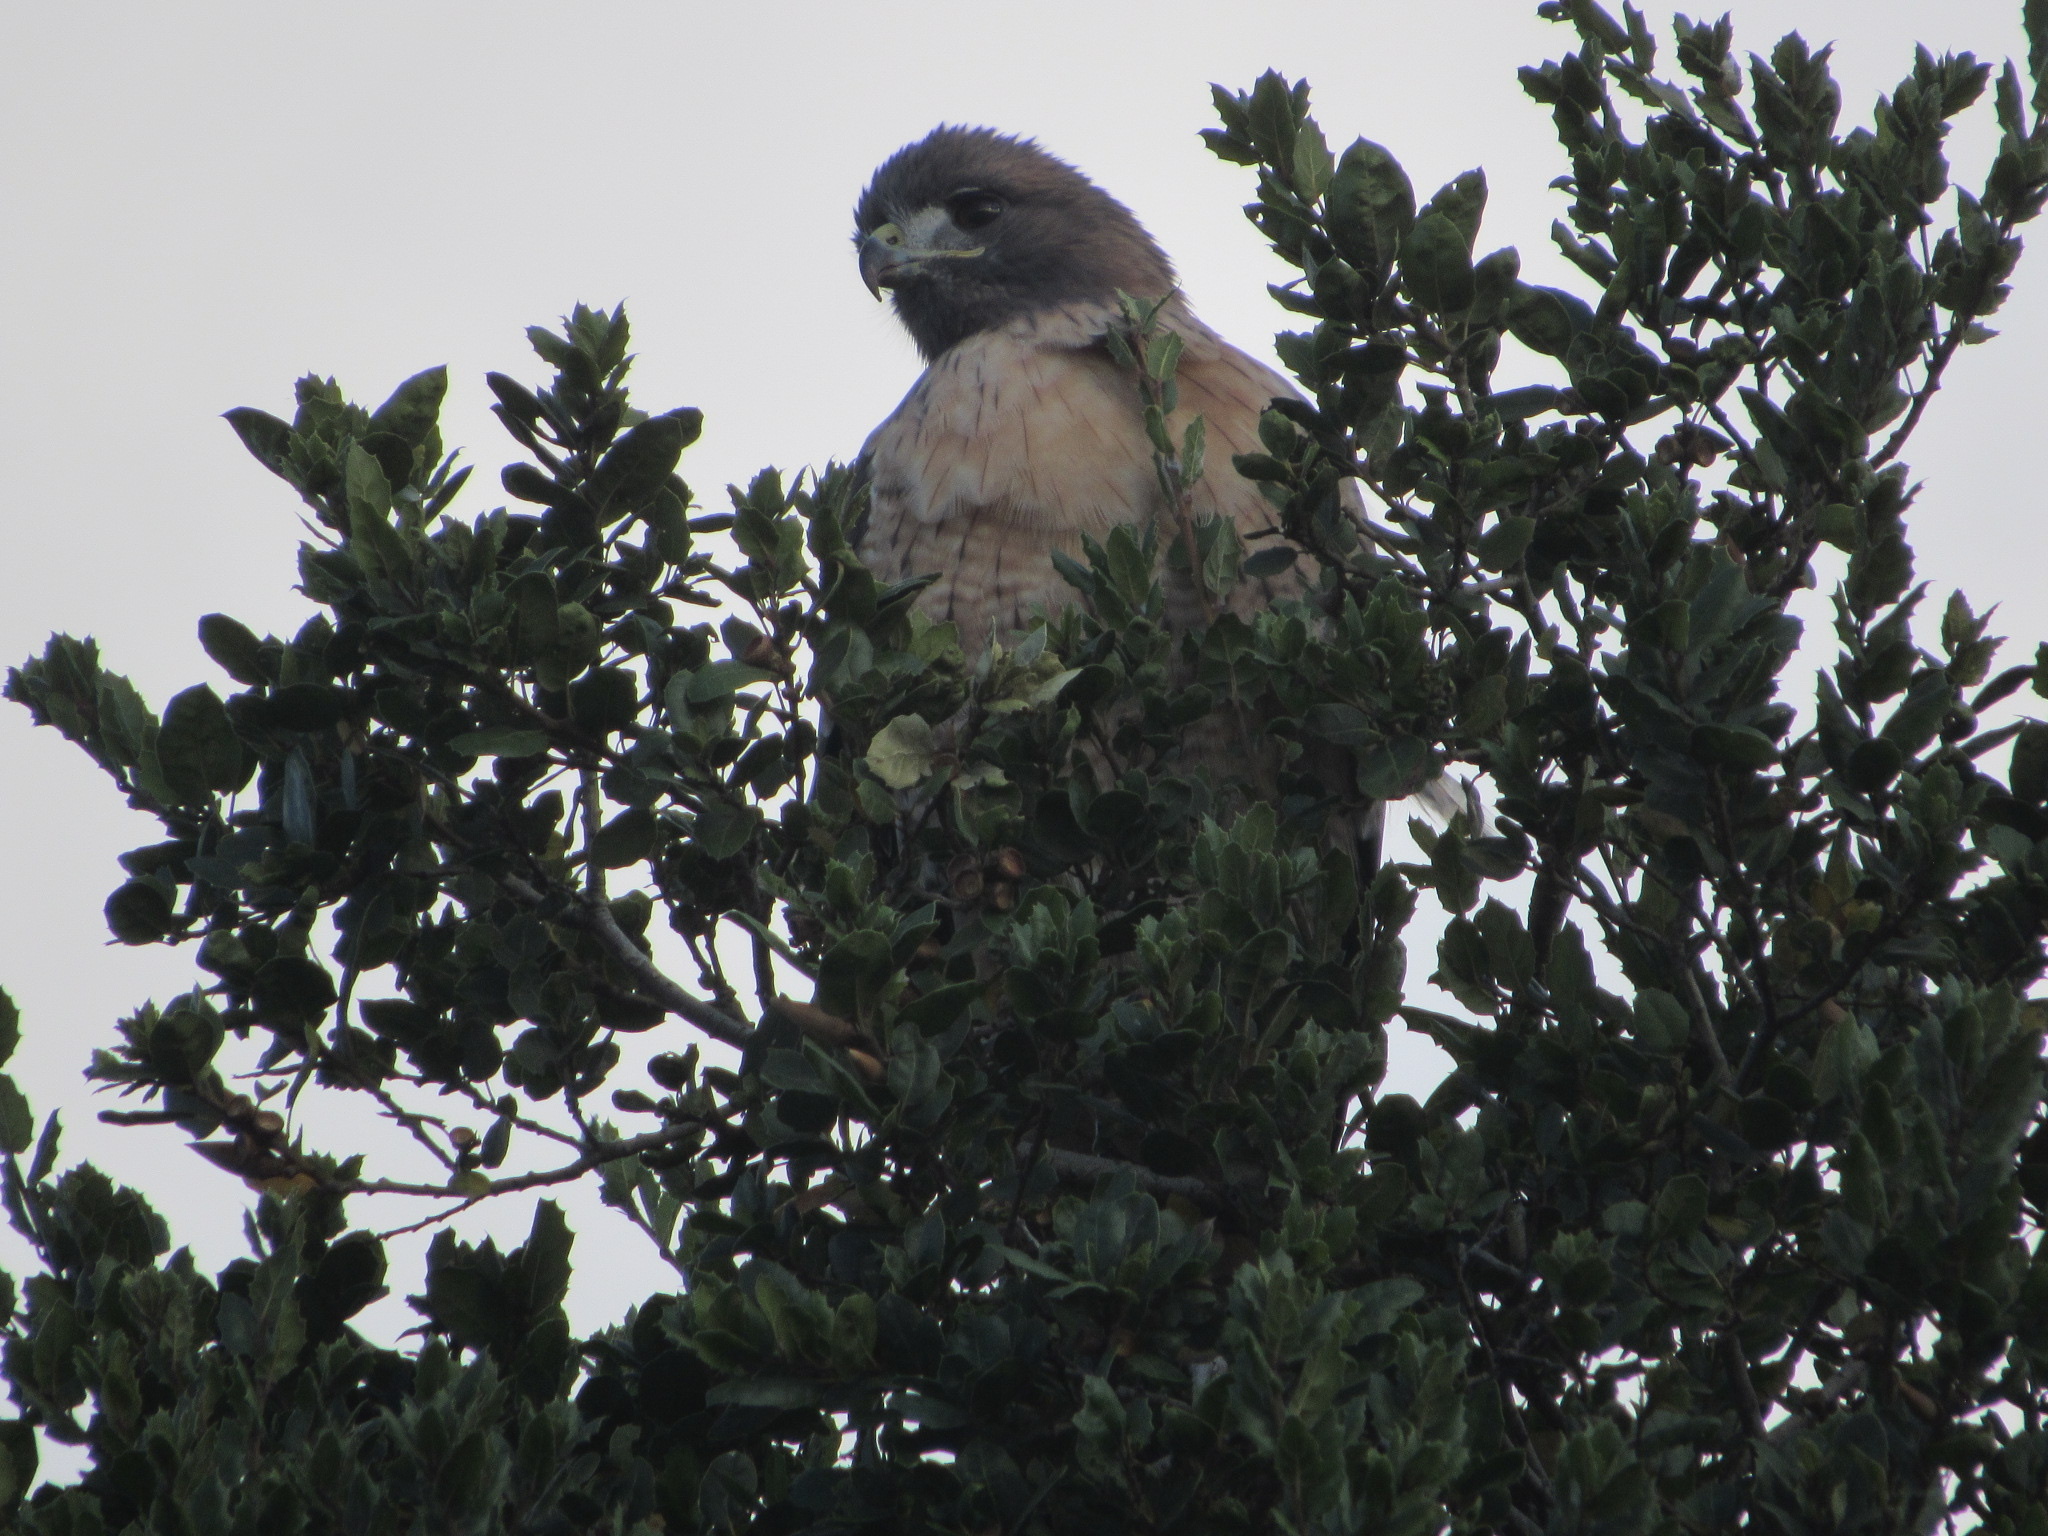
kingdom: Animalia
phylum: Chordata
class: Aves
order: Accipitriformes
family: Accipitridae
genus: Buteo
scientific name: Buteo jamaicensis
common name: Red-tailed hawk
